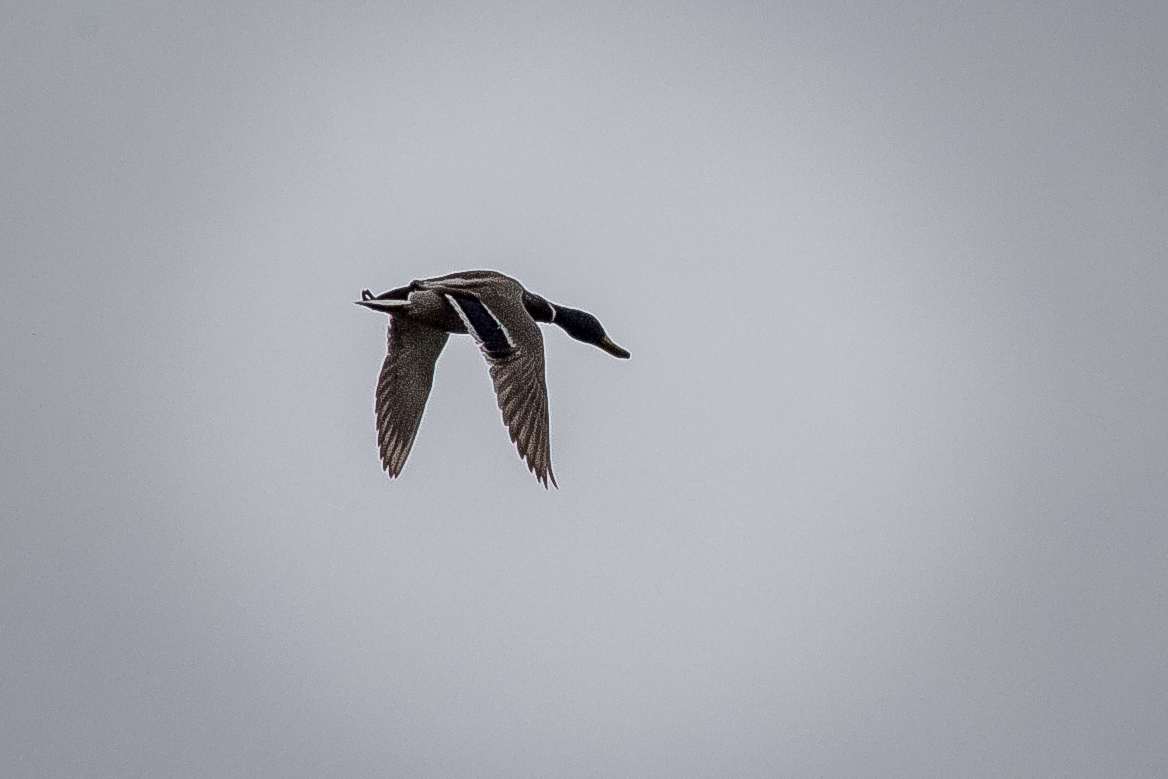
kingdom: Animalia
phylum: Chordata
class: Aves
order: Anseriformes
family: Anatidae
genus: Anas
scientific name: Anas platyrhynchos
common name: Mallard
